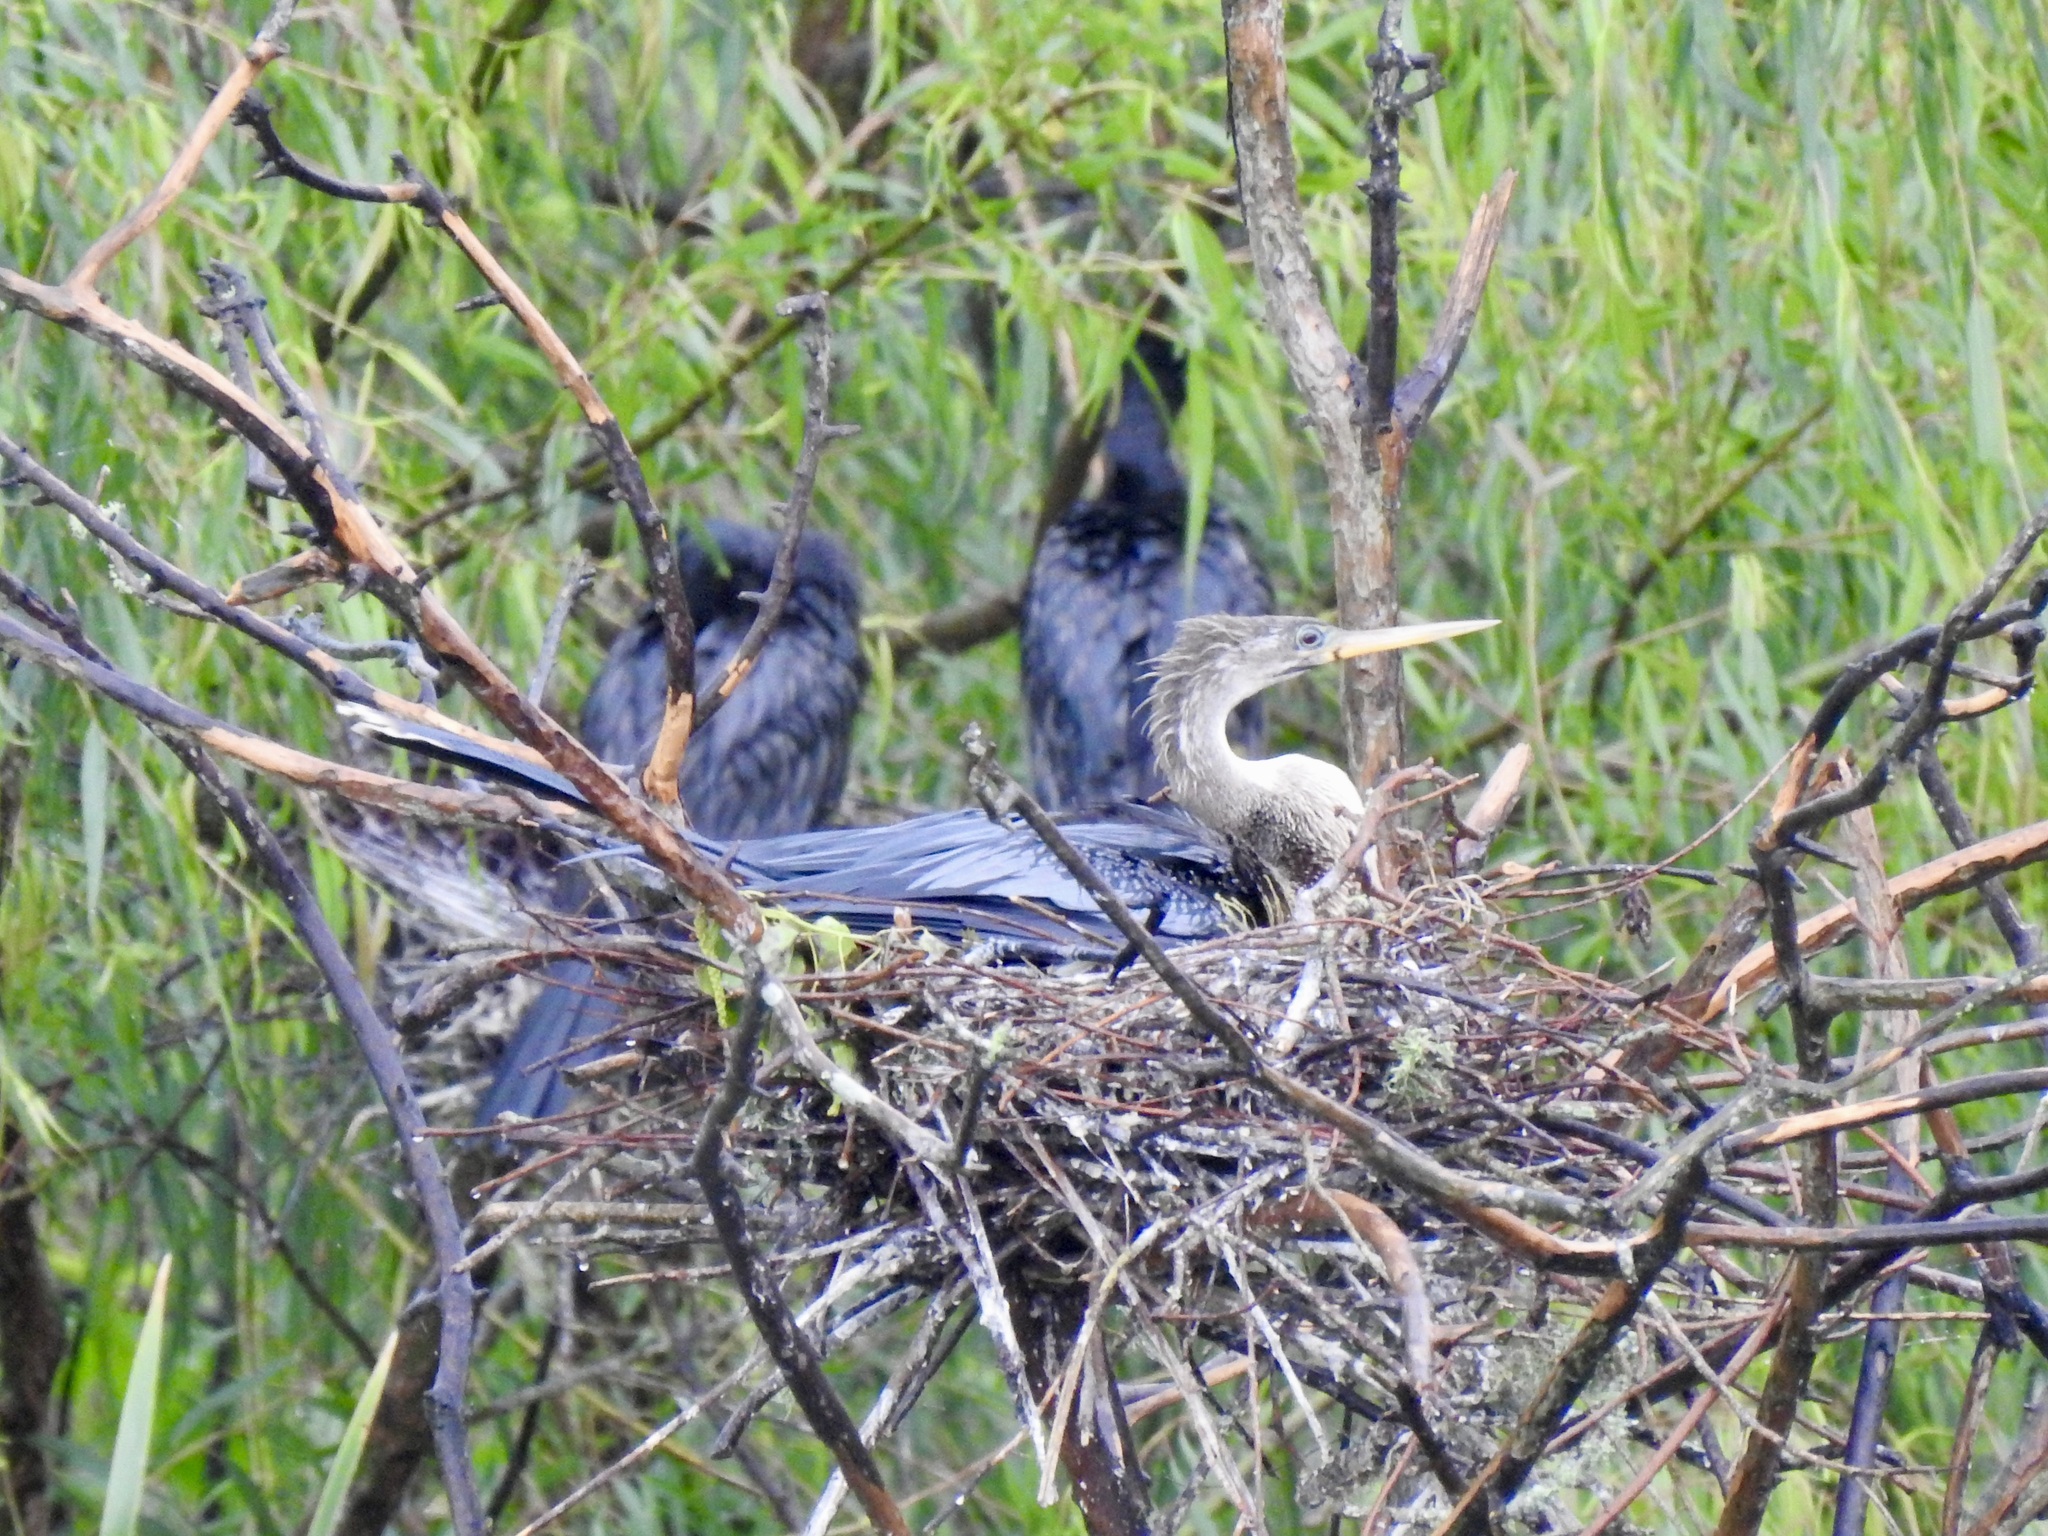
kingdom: Animalia
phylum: Chordata
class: Aves
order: Suliformes
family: Anhingidae
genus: Anhinga
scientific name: Anhinga anhinga
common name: Anhinga
